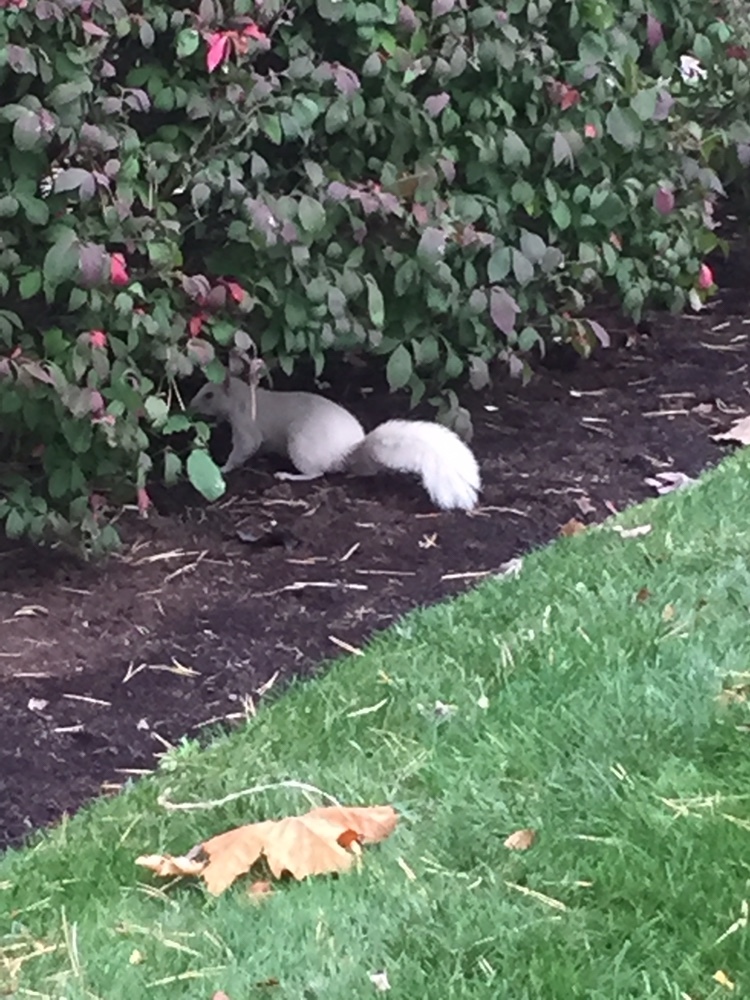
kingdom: Animalia
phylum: Chordata
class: Mammalia
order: Rodentia
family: Sciuridae
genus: Sciurus
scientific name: Sciurus carolinensis
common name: Eastern gray squirrel
